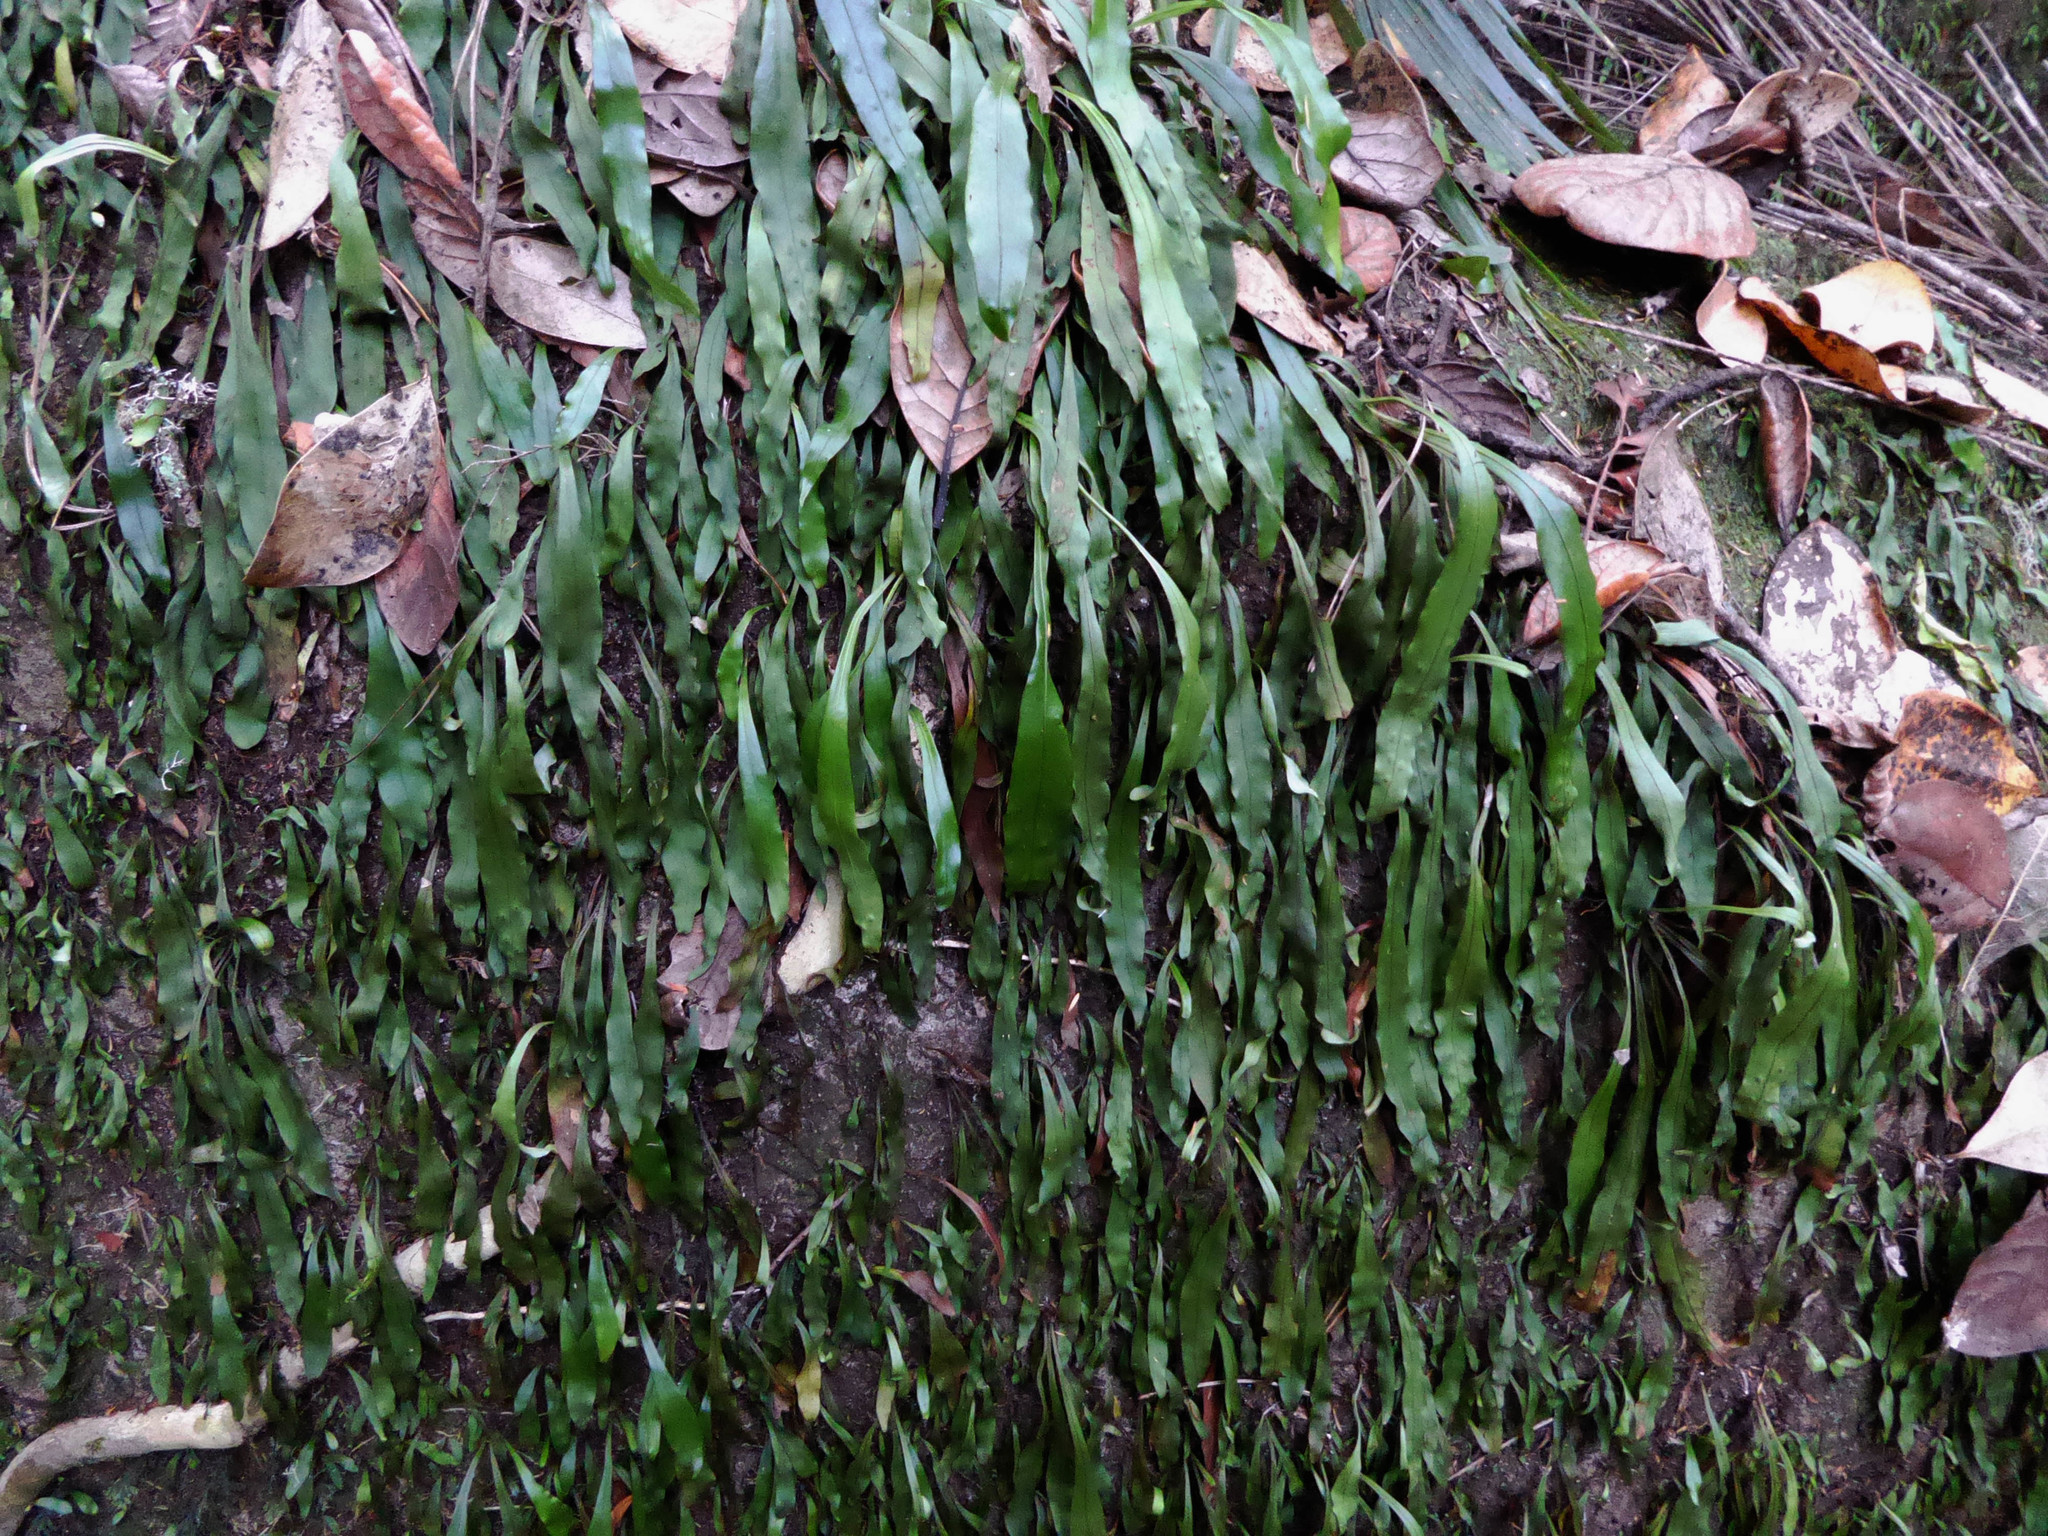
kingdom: Plantae
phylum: Tracheophyta
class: Polypodiopsida
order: Polypodiales
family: Polypodiaceae
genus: Loxogramme
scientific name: Loxogramme dictyopteris
